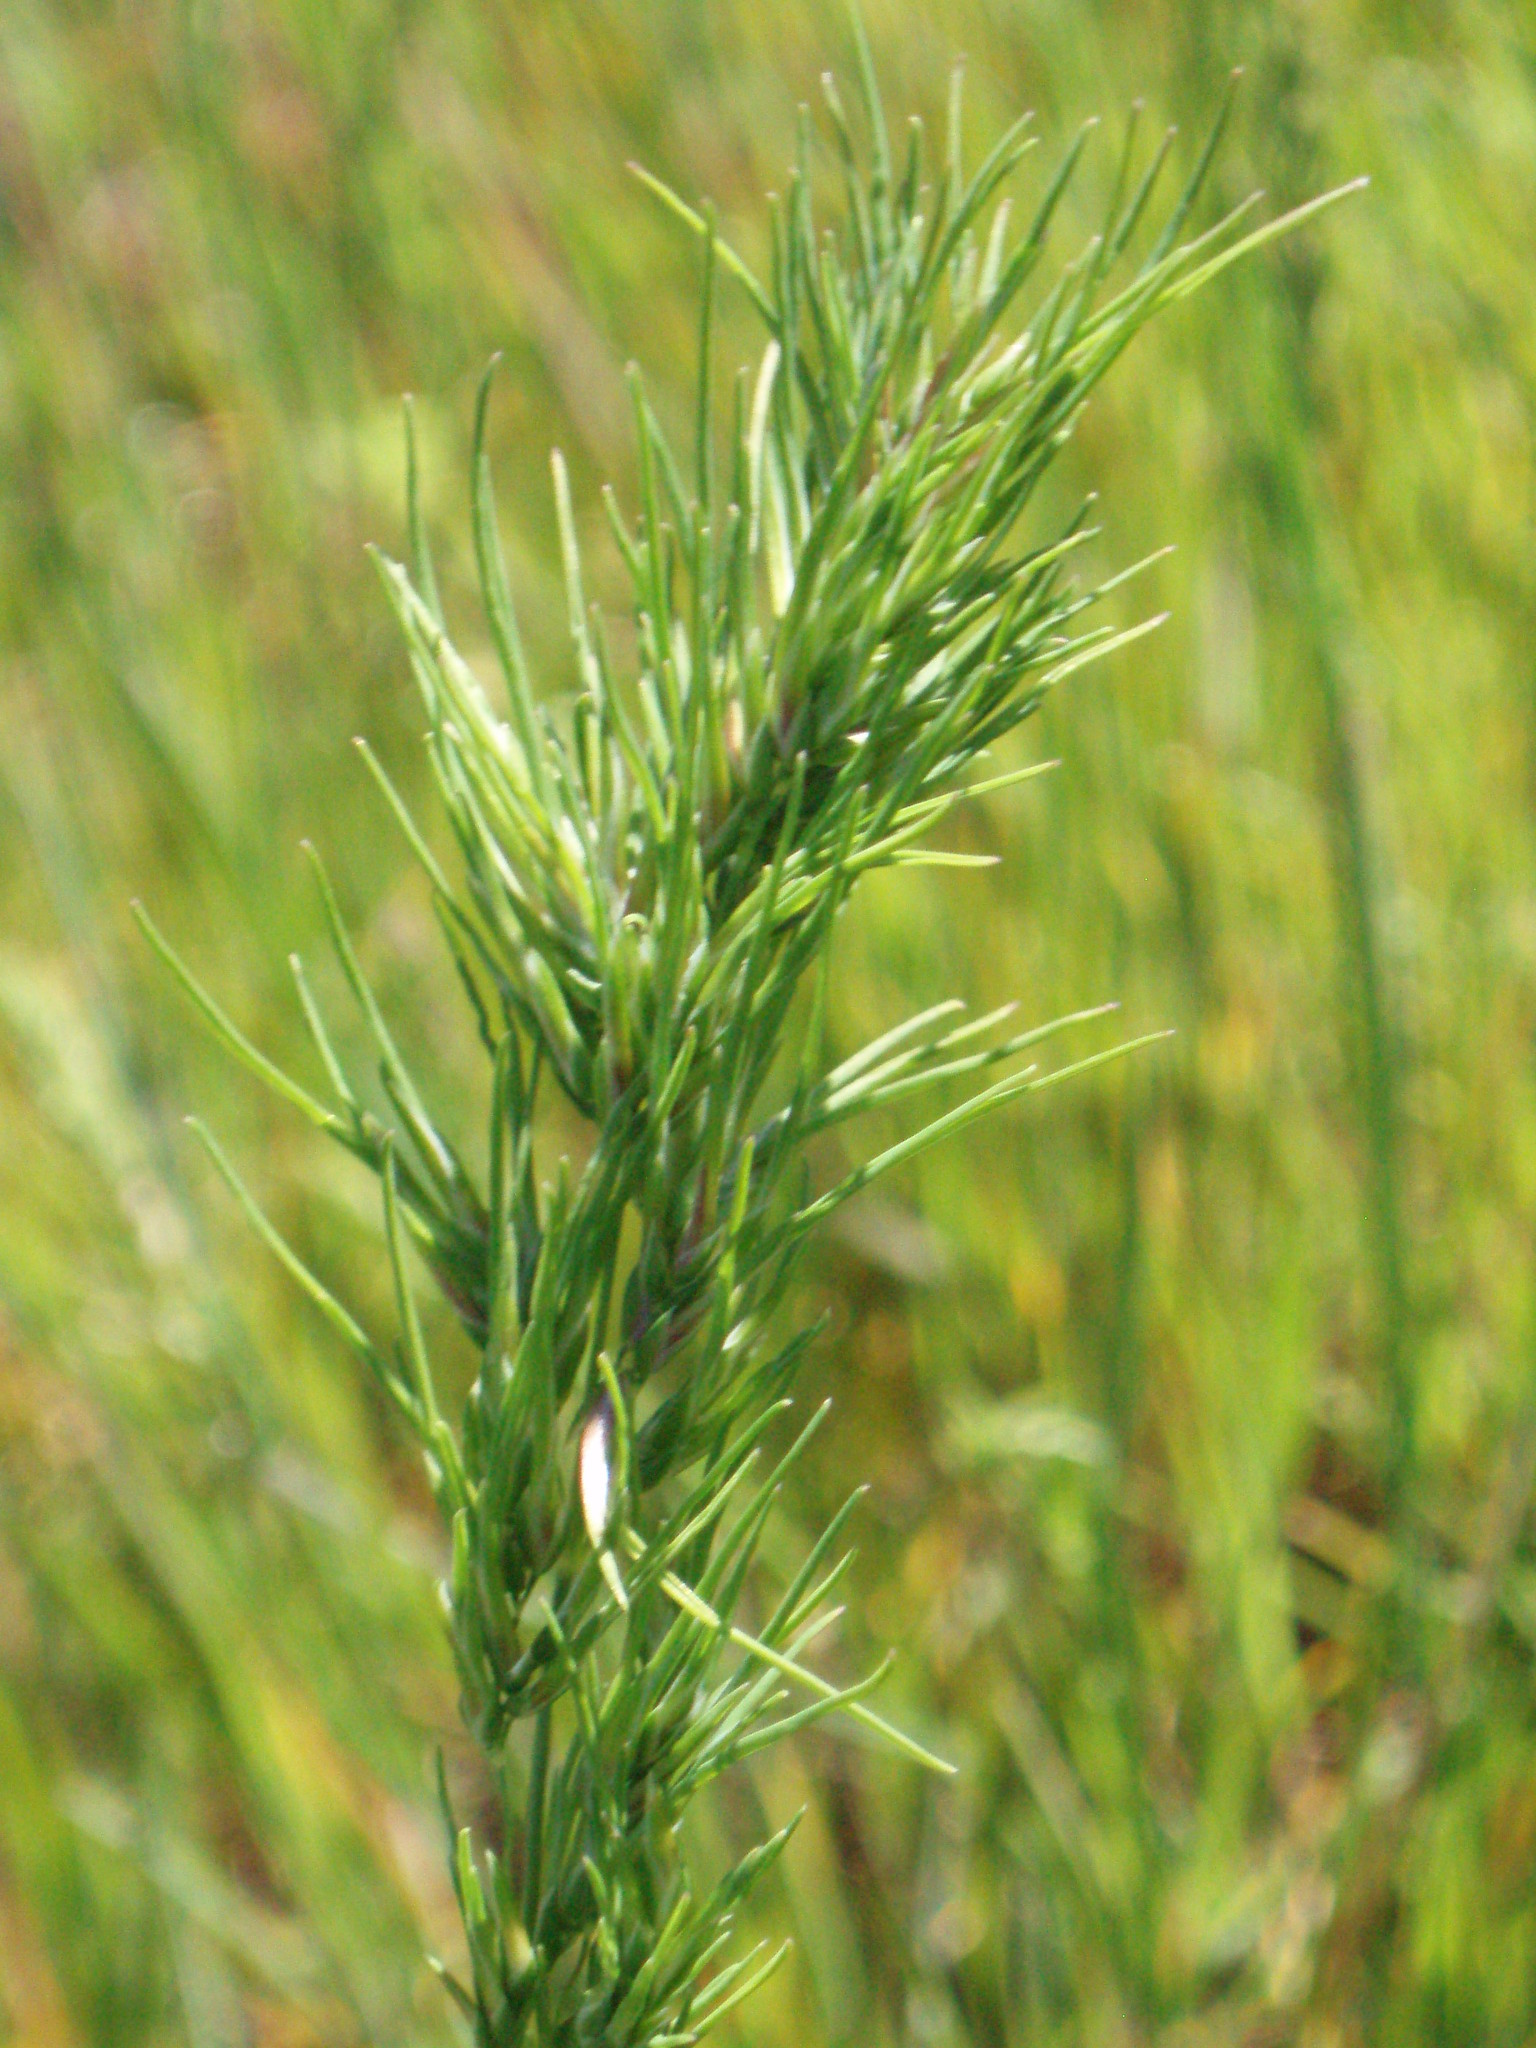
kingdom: Plantae
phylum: Tracheophyta
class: Liliopsida
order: Poales
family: Poaceae
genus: Poa
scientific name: Poa bulbosa
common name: Bulbous bluegrass
